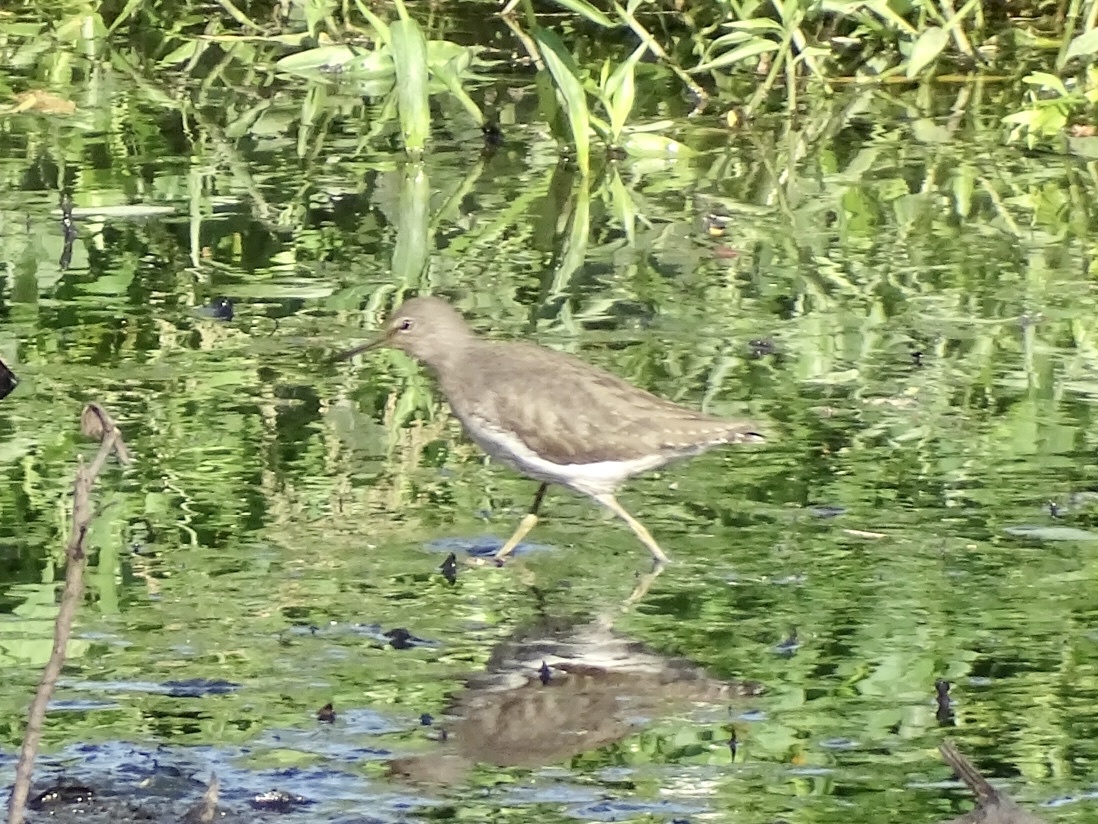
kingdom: Animalia
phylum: Chordata
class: Aves
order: Charadriiformes
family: Scolopacidae
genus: Tringa
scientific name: Tringa ochropus
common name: Green sandpiper
